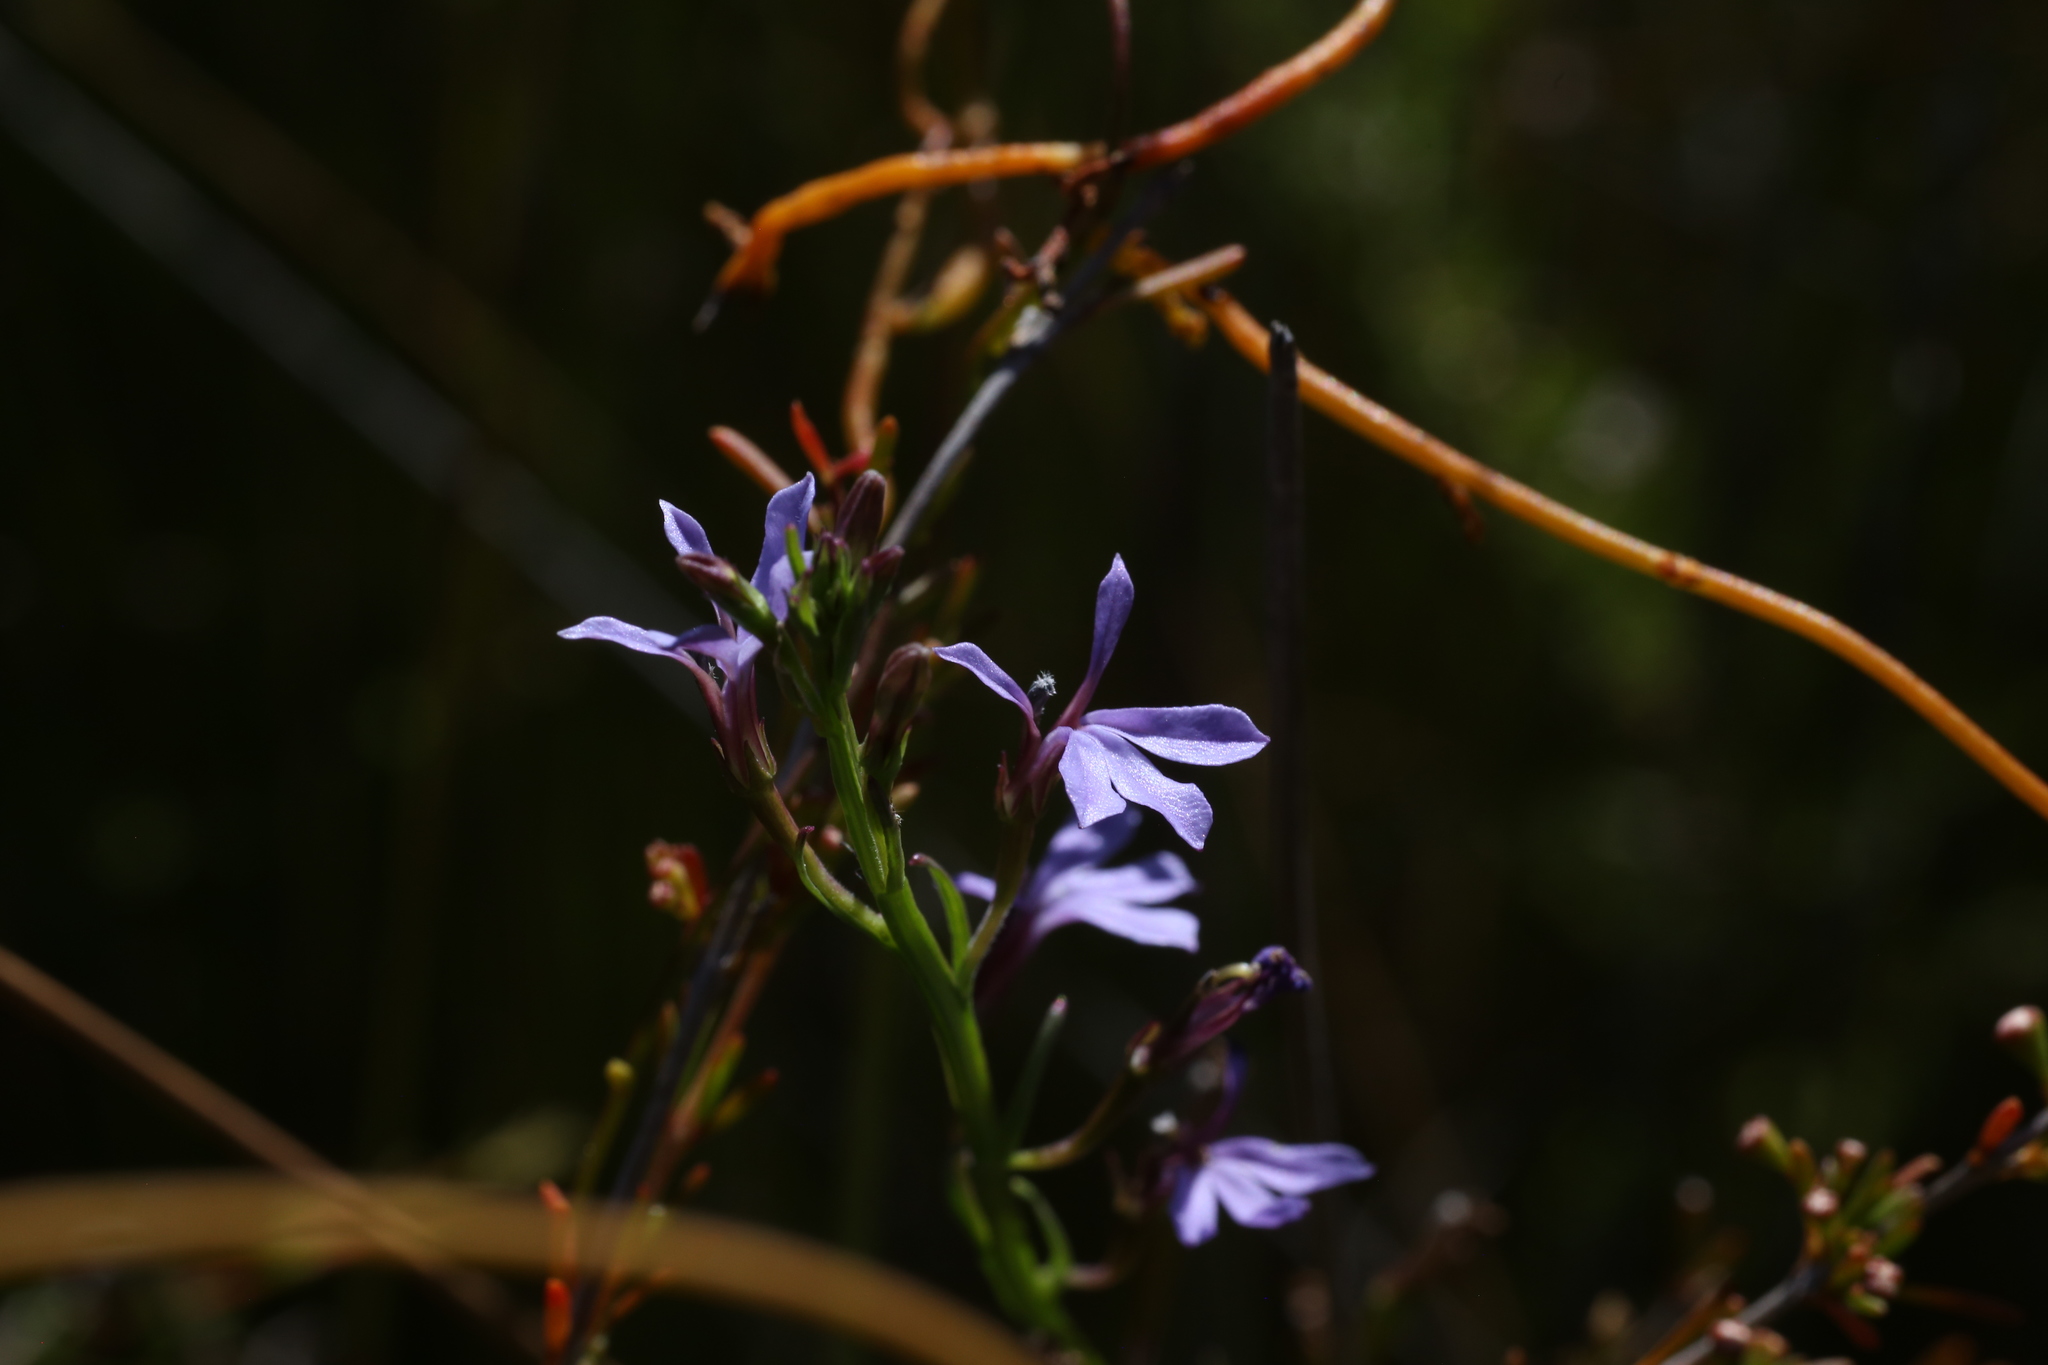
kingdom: Plantae
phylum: Tracheophyta
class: Magnoliopsida
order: Asterales
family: Campanulaceae
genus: Lobelia
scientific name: Lobelia anceps
